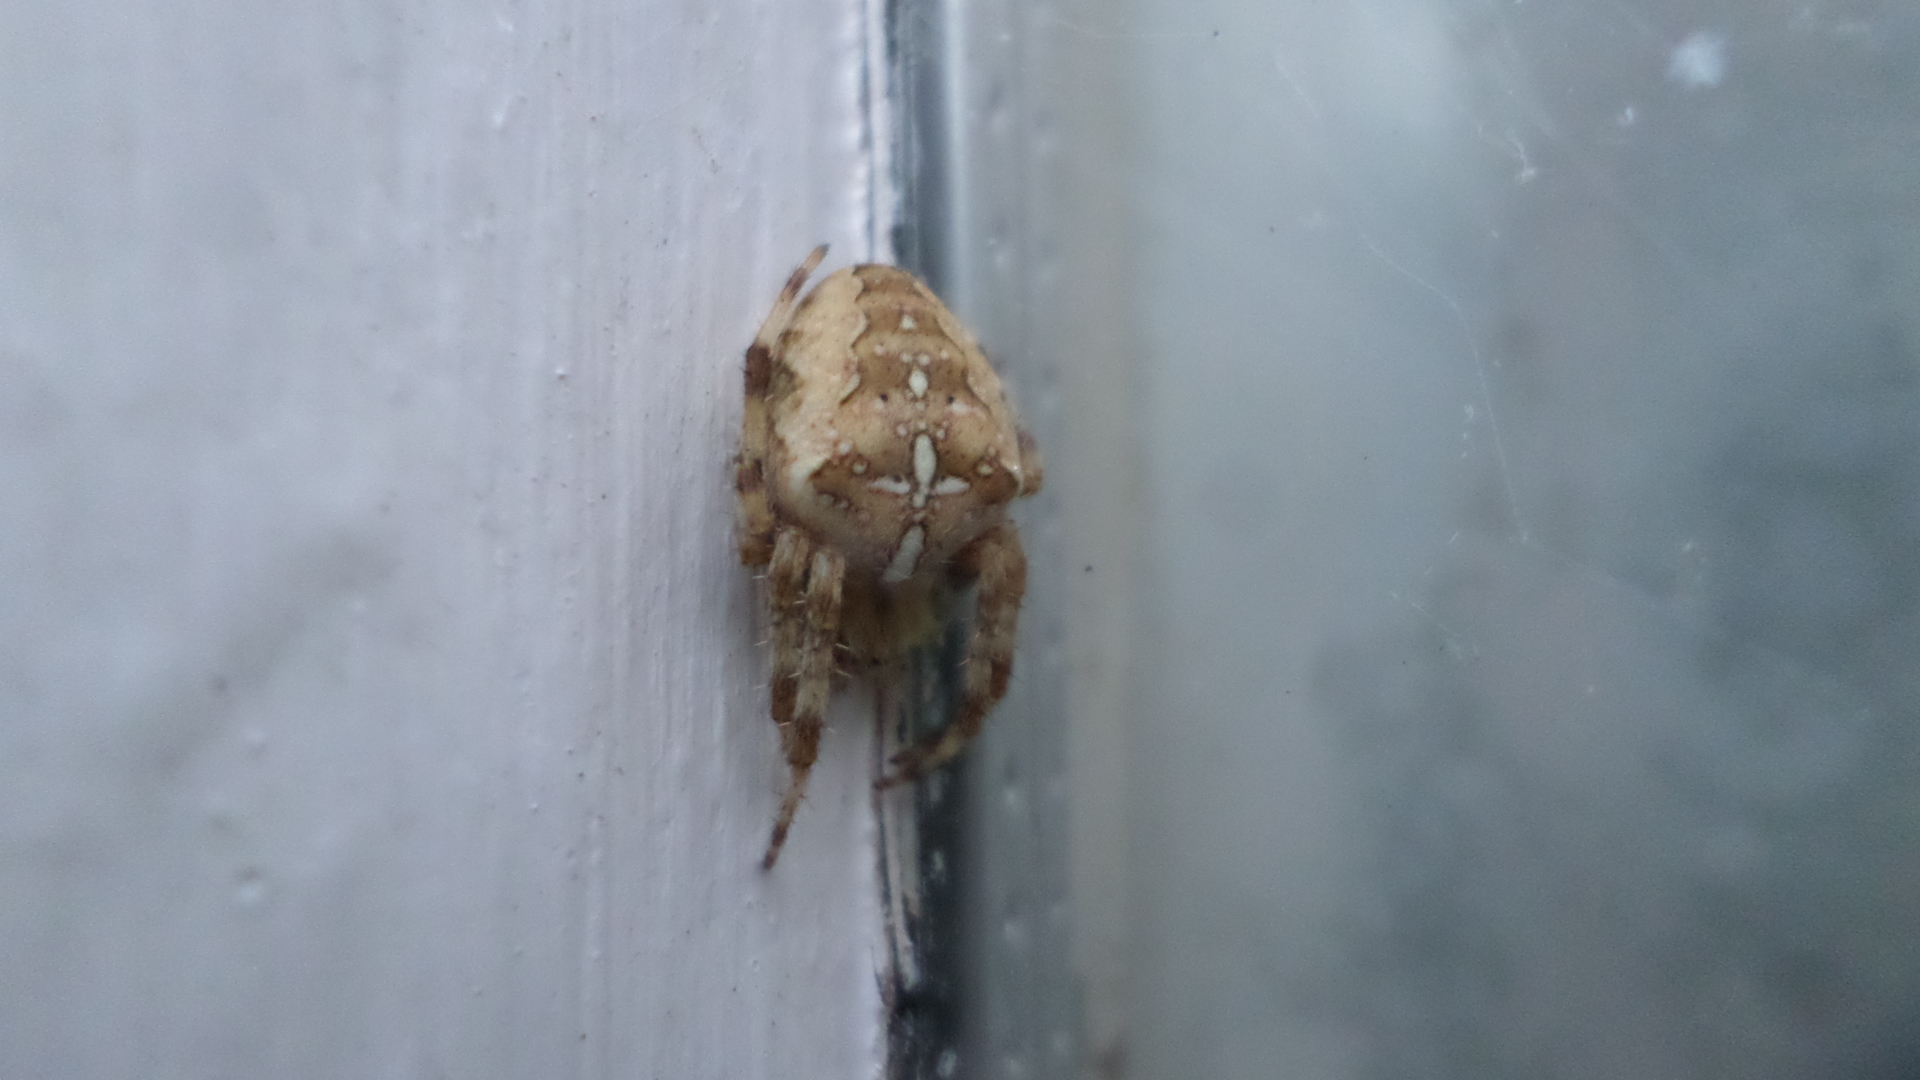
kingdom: Animalia
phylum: Arthropoda
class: Arachnida
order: Araneae
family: Araneidae
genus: Araneus
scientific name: Araneus diadematus
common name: Cross orbweaver
